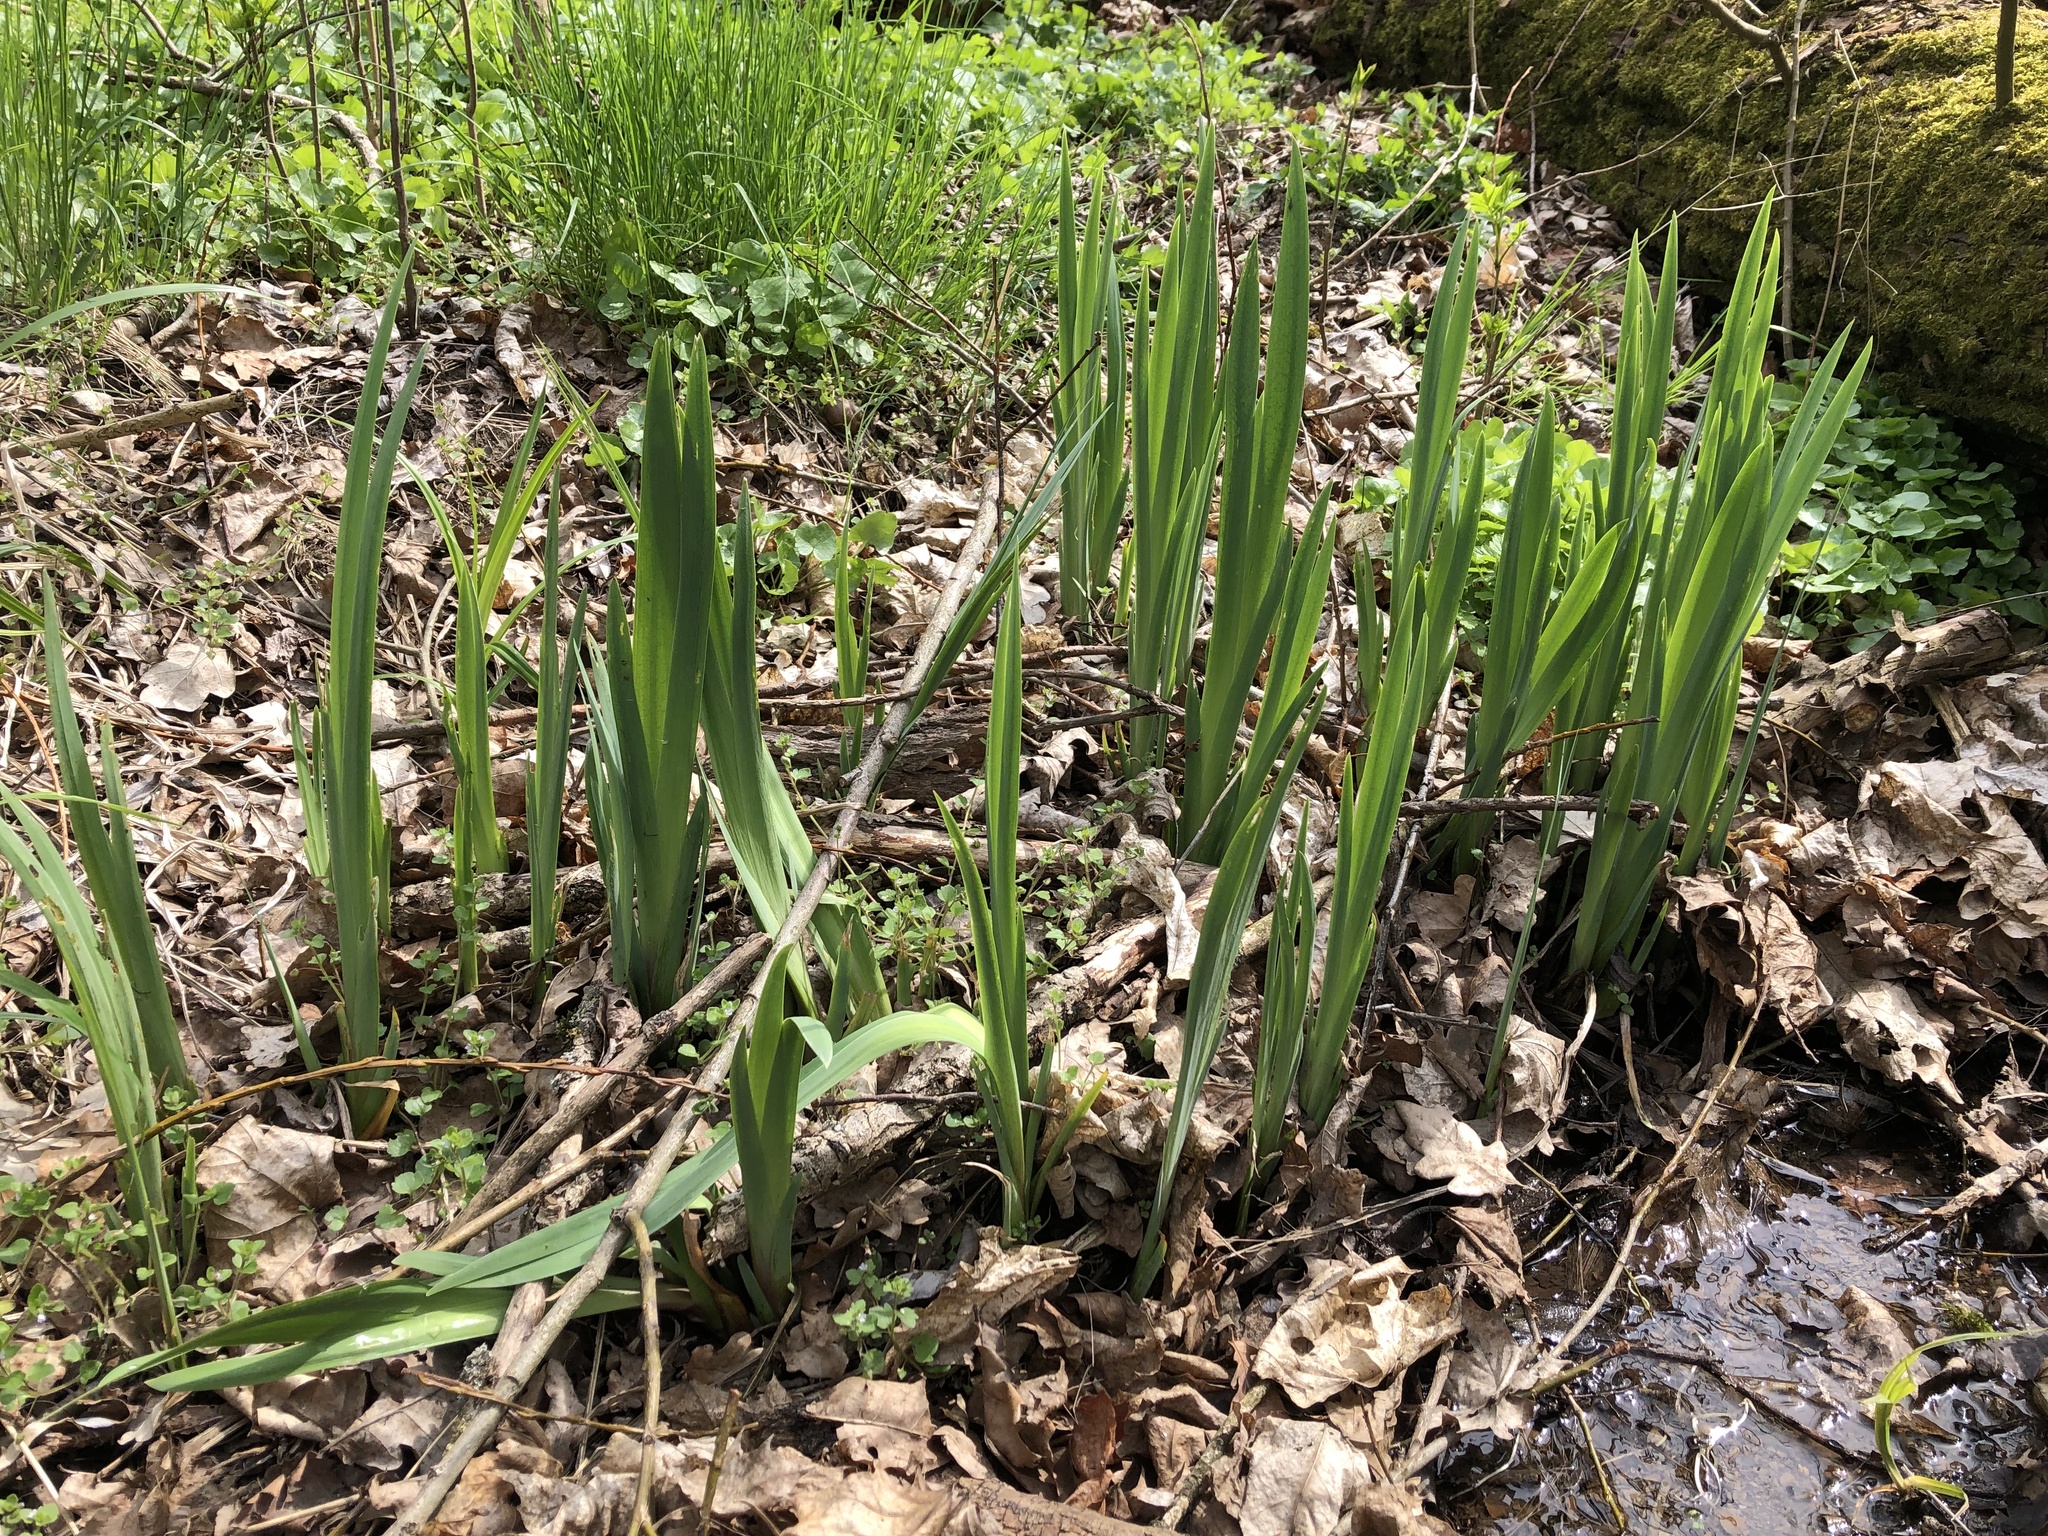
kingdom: Plantae
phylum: Tracheophyta
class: Liliopsida
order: Asparagales
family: Iridaceae
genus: Iris
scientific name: Iris pseudacorus
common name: Yellow flag
